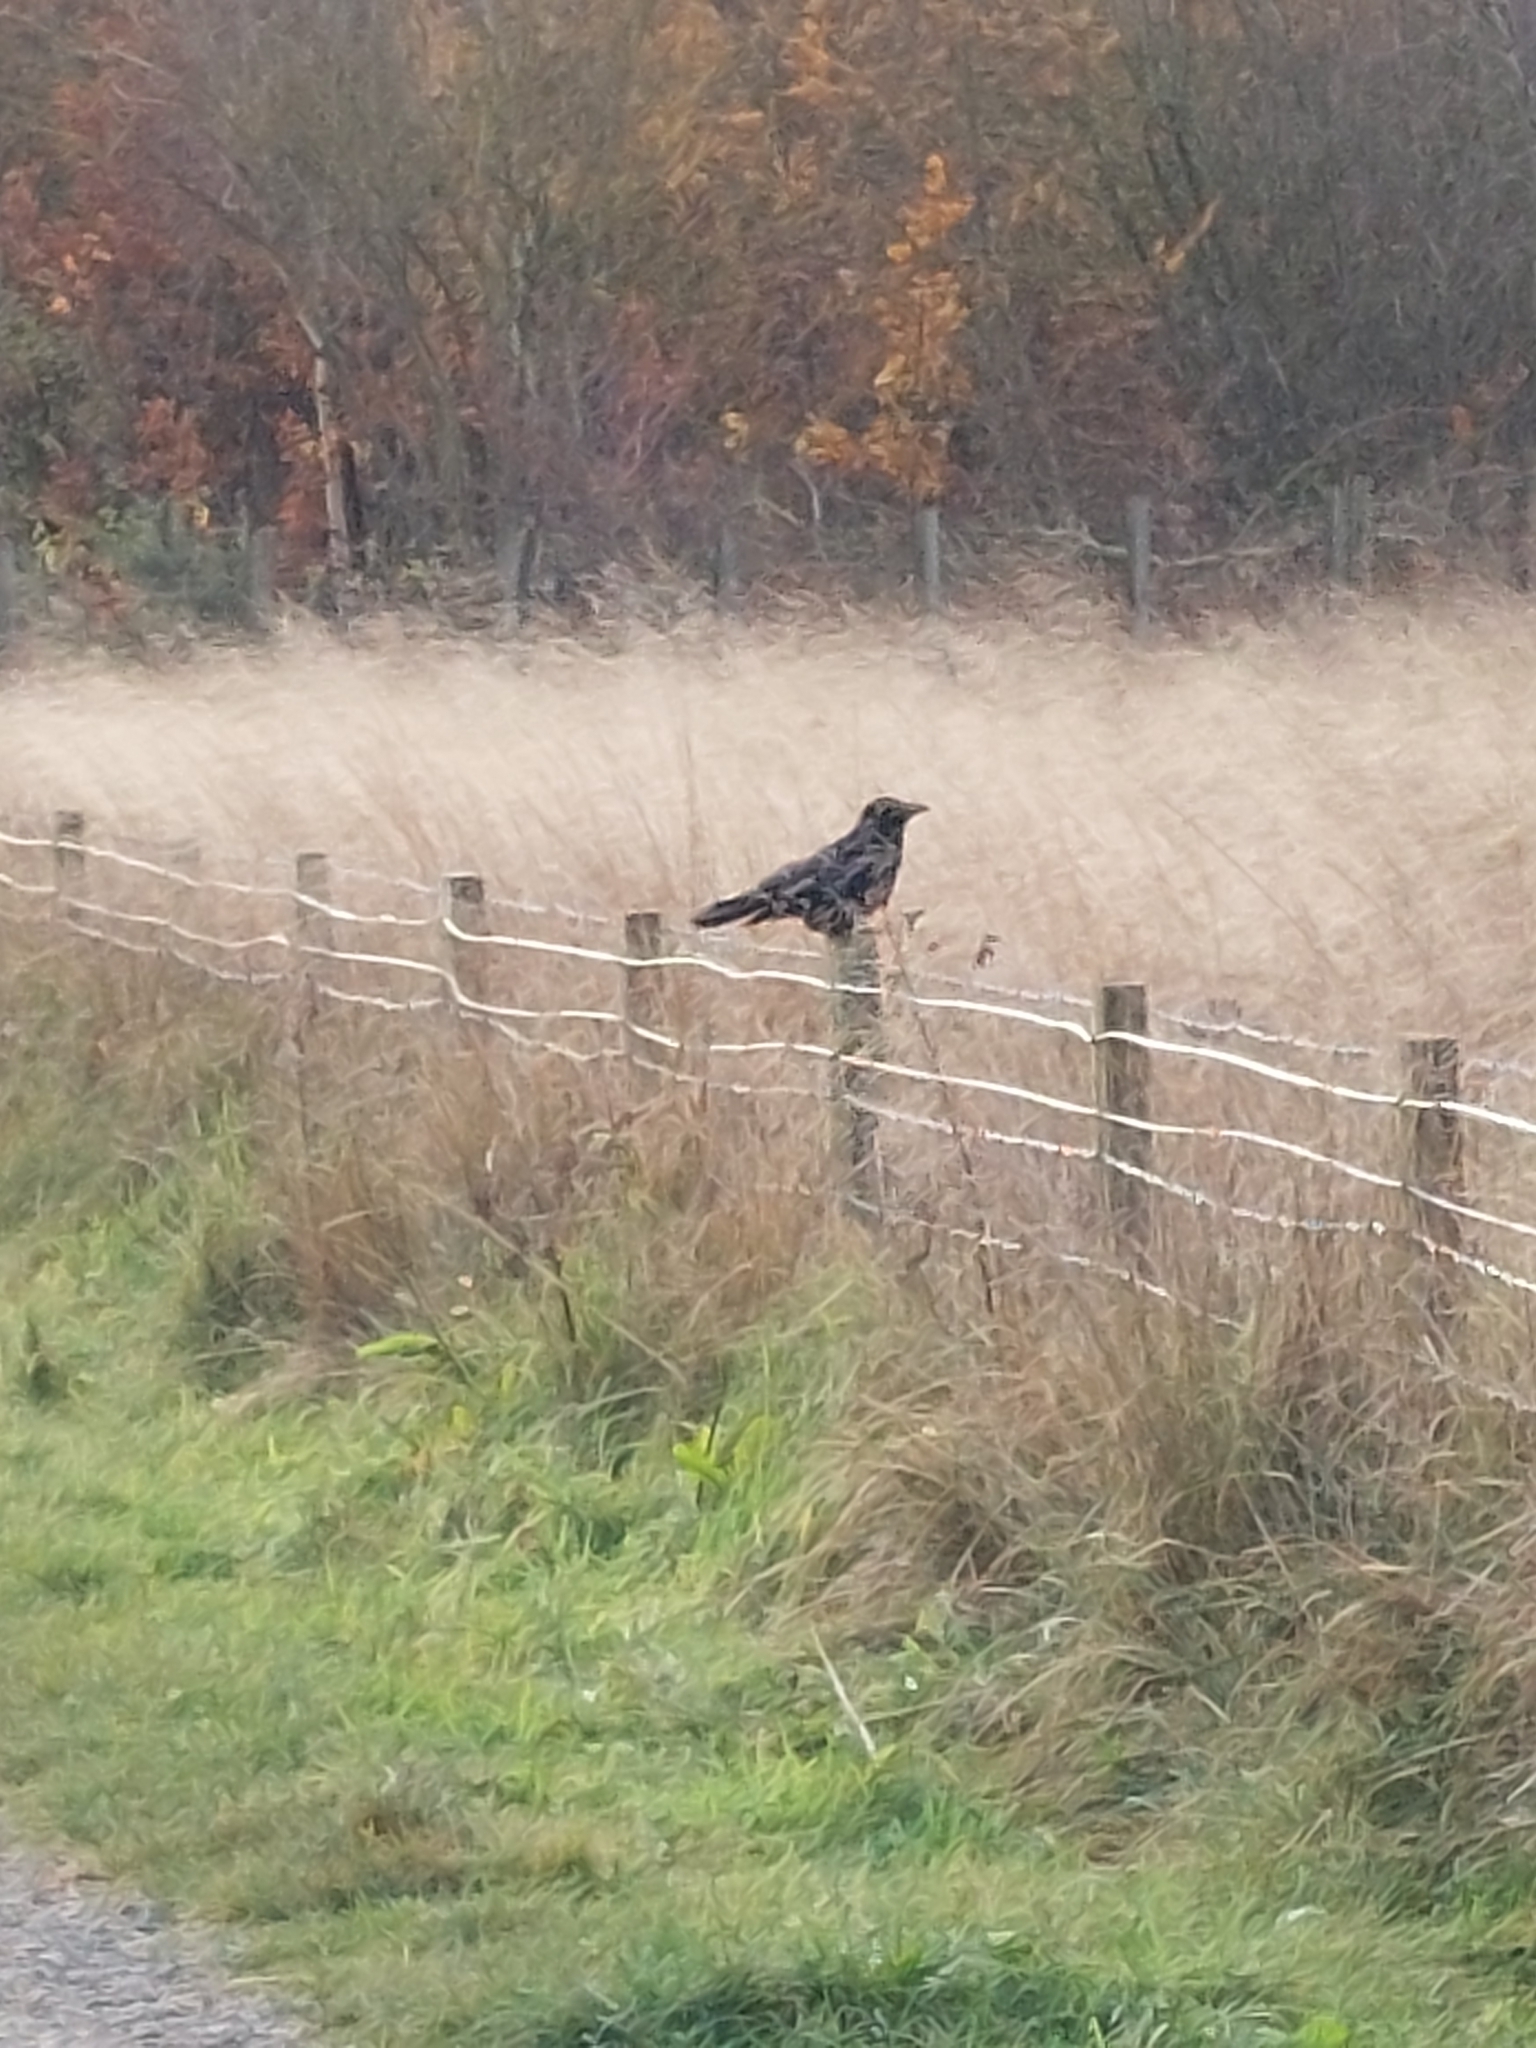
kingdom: Animalia
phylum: Chordata
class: Aves
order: Passeriformes
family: Corvidae
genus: Corvus
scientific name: Corvus corone
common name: Carrion crow
